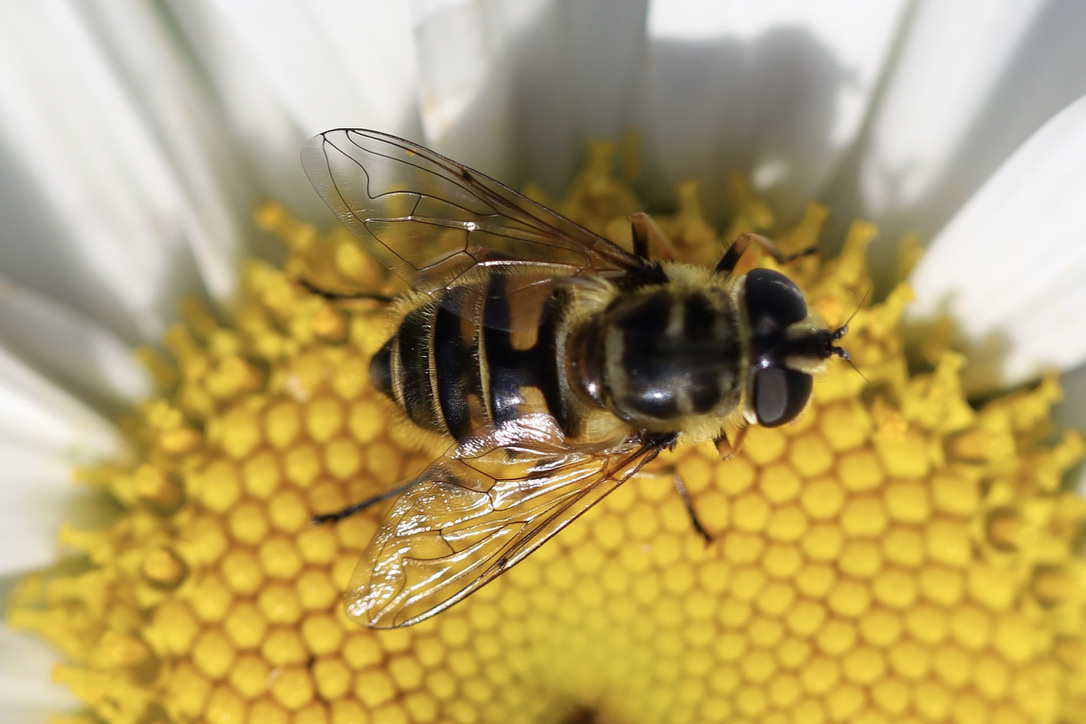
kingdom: Animalia
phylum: Arthropoda
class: Insecta
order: Diptera
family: Syrphidae
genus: Myathropa
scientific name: Myathropa florea
